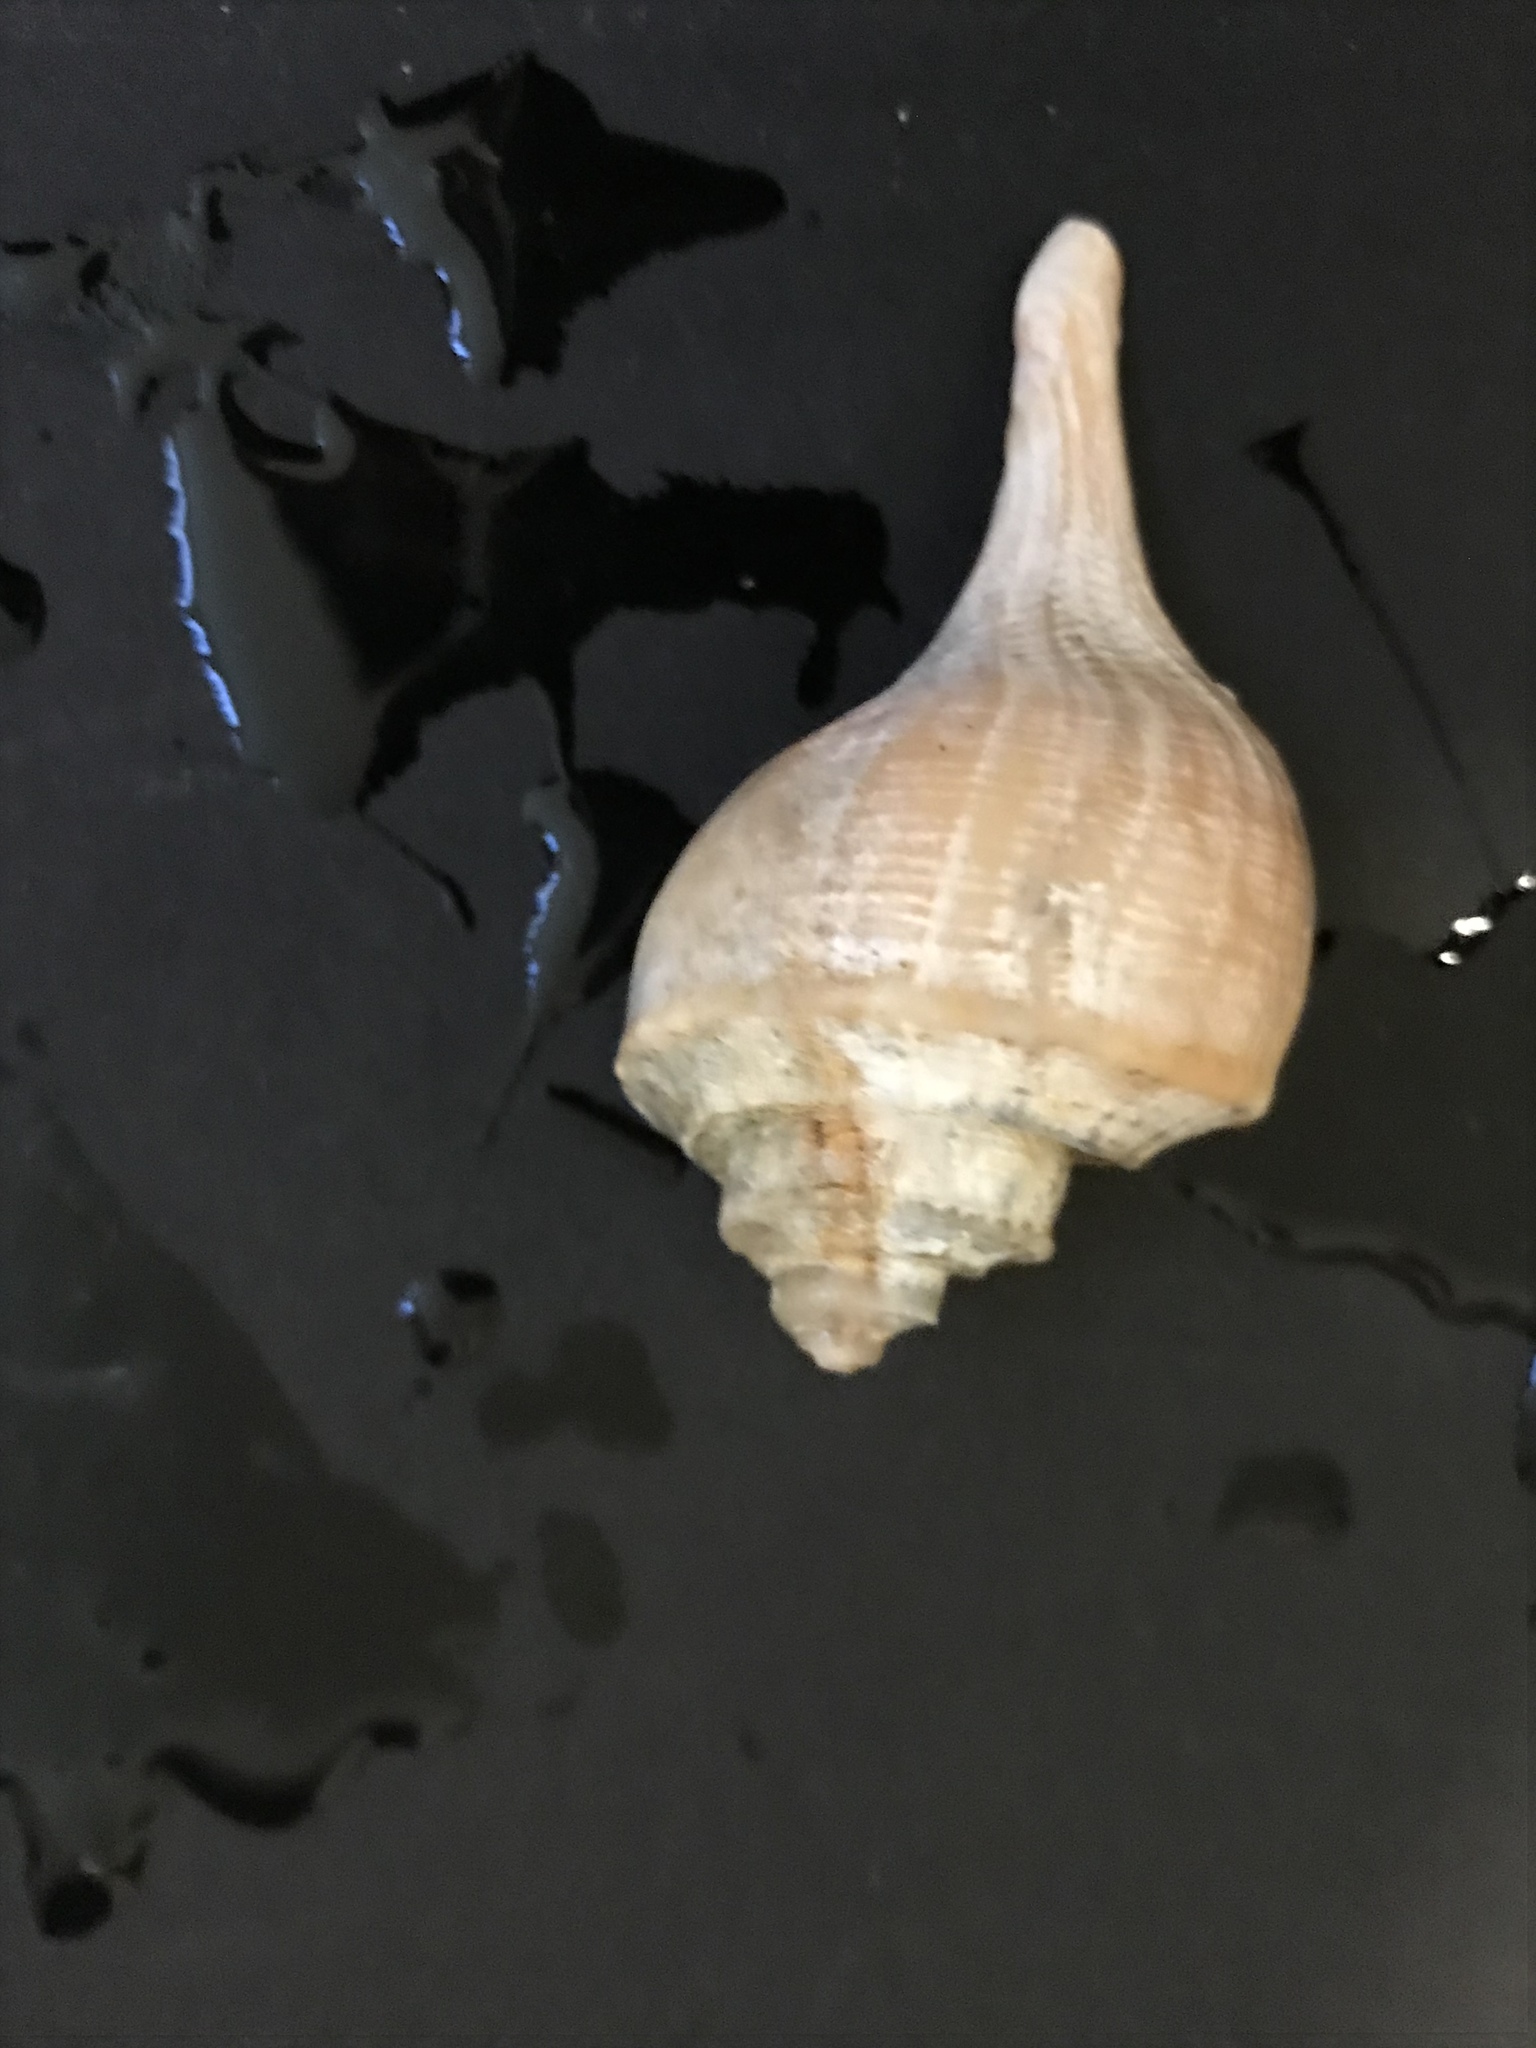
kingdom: Animalia
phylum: Mollusca
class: Gastropoda
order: Neogastropoda
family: Busyconidae
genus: Busycotypus
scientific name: Busycotypus canaliculatus
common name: Channeled whelk
